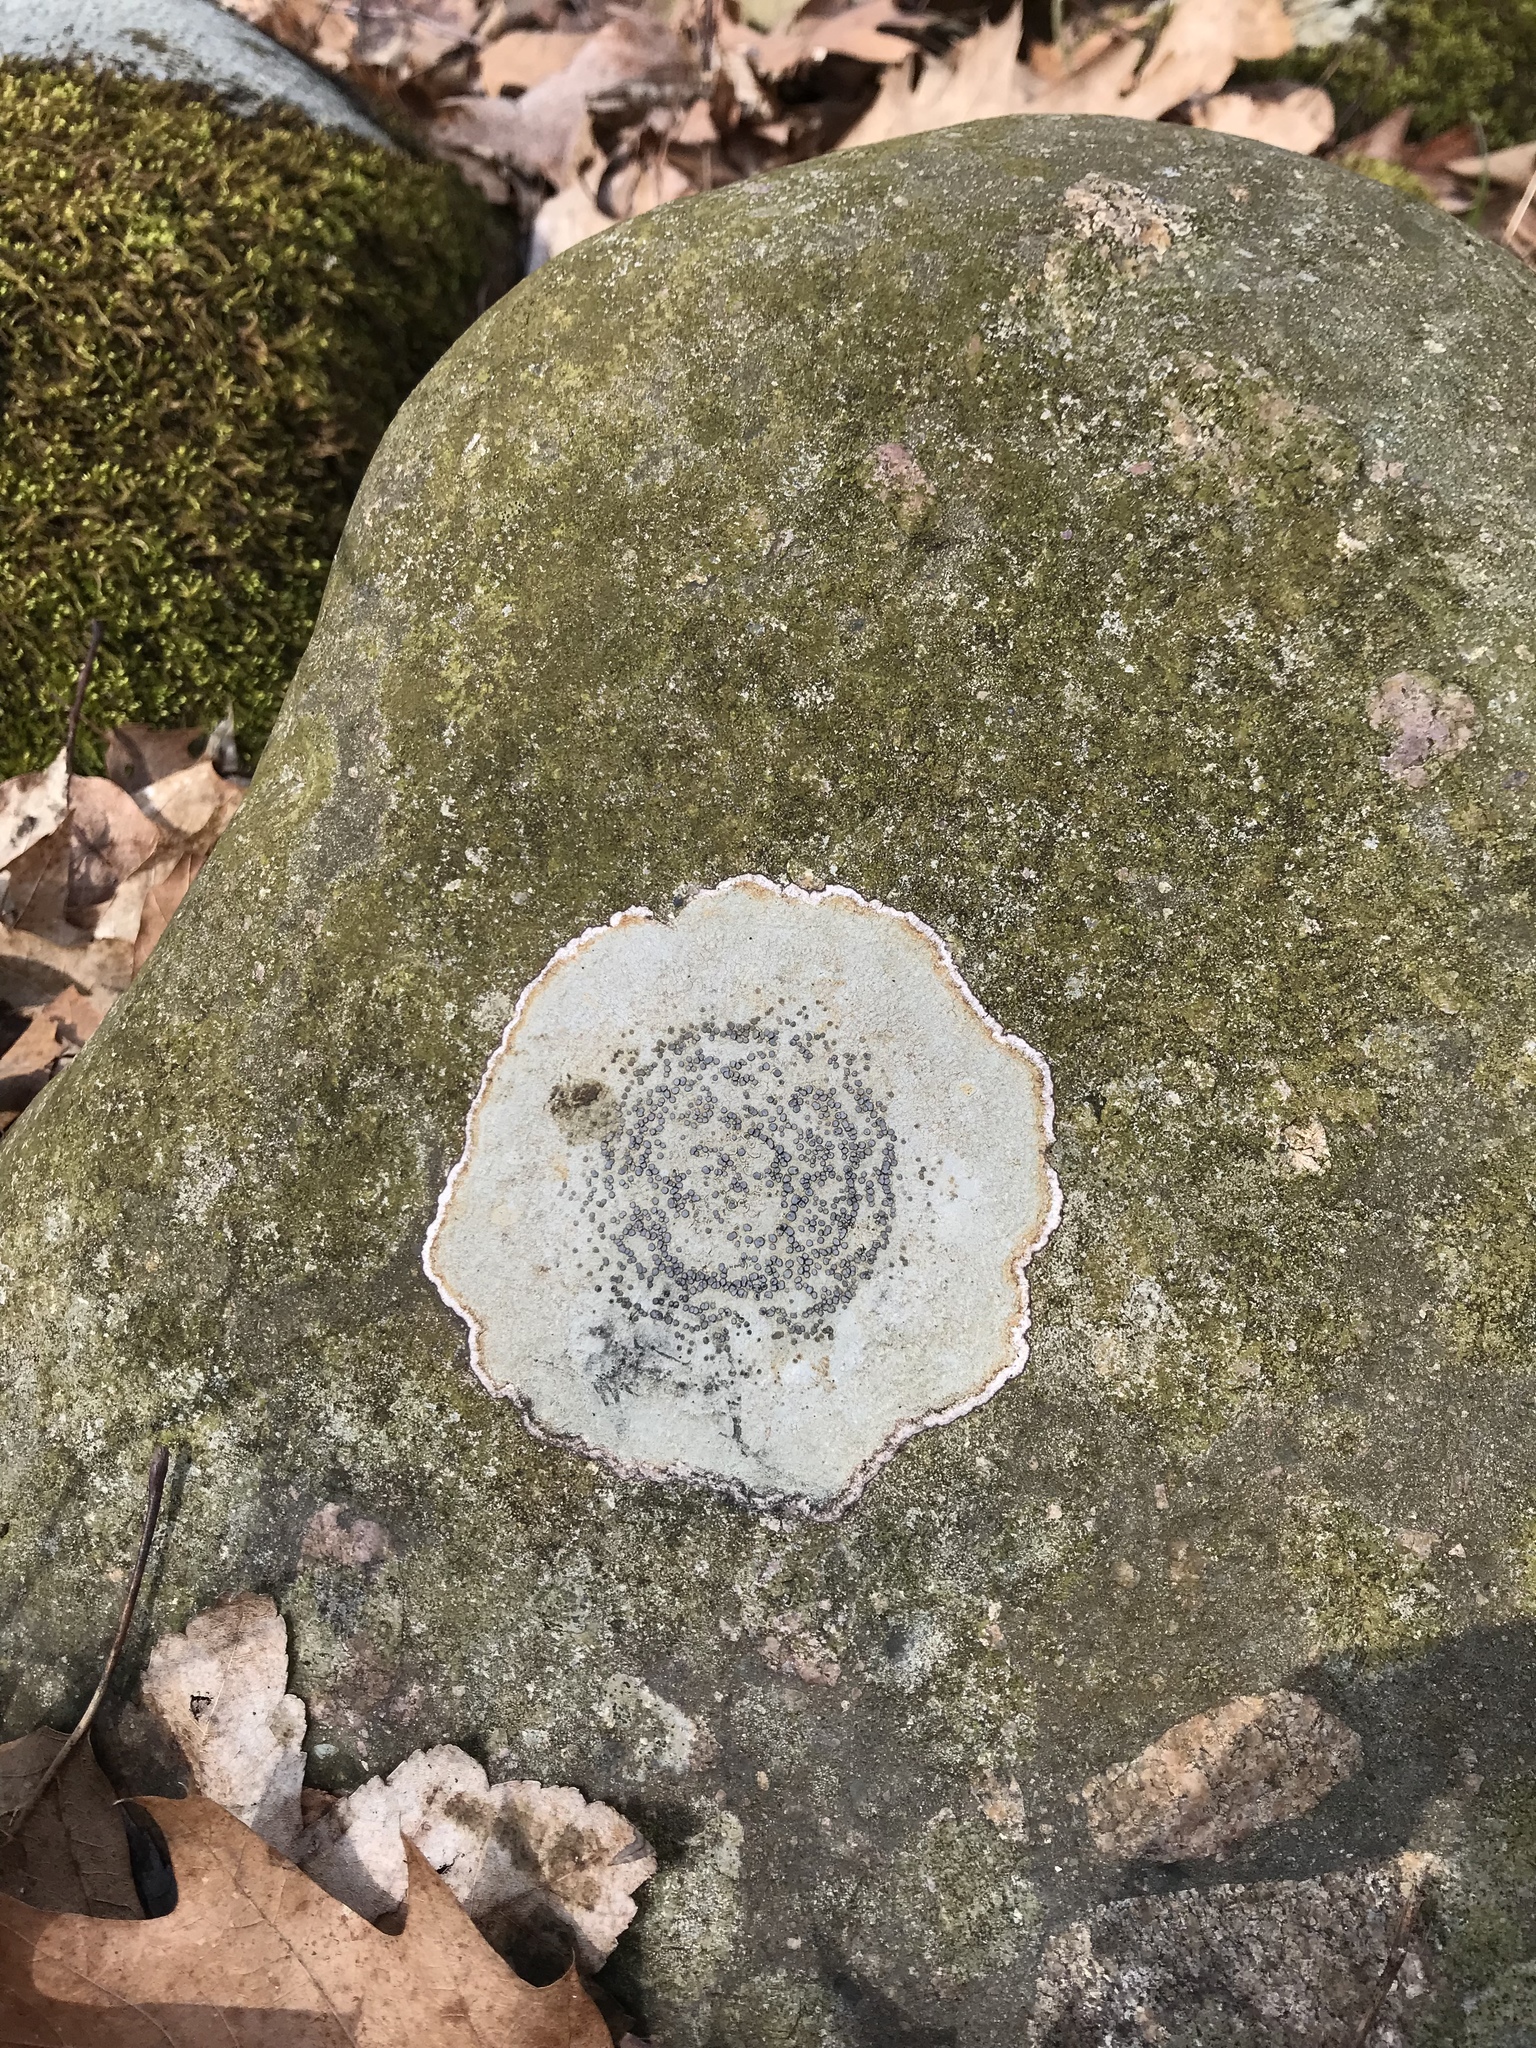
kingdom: Fungi
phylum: Ascomycota
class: Lecanoromycetes
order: Lecideales
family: Lecideaceae
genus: Porpidia
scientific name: Porpidia albocaerulescens
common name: Smokey-eyed boulder lichen
